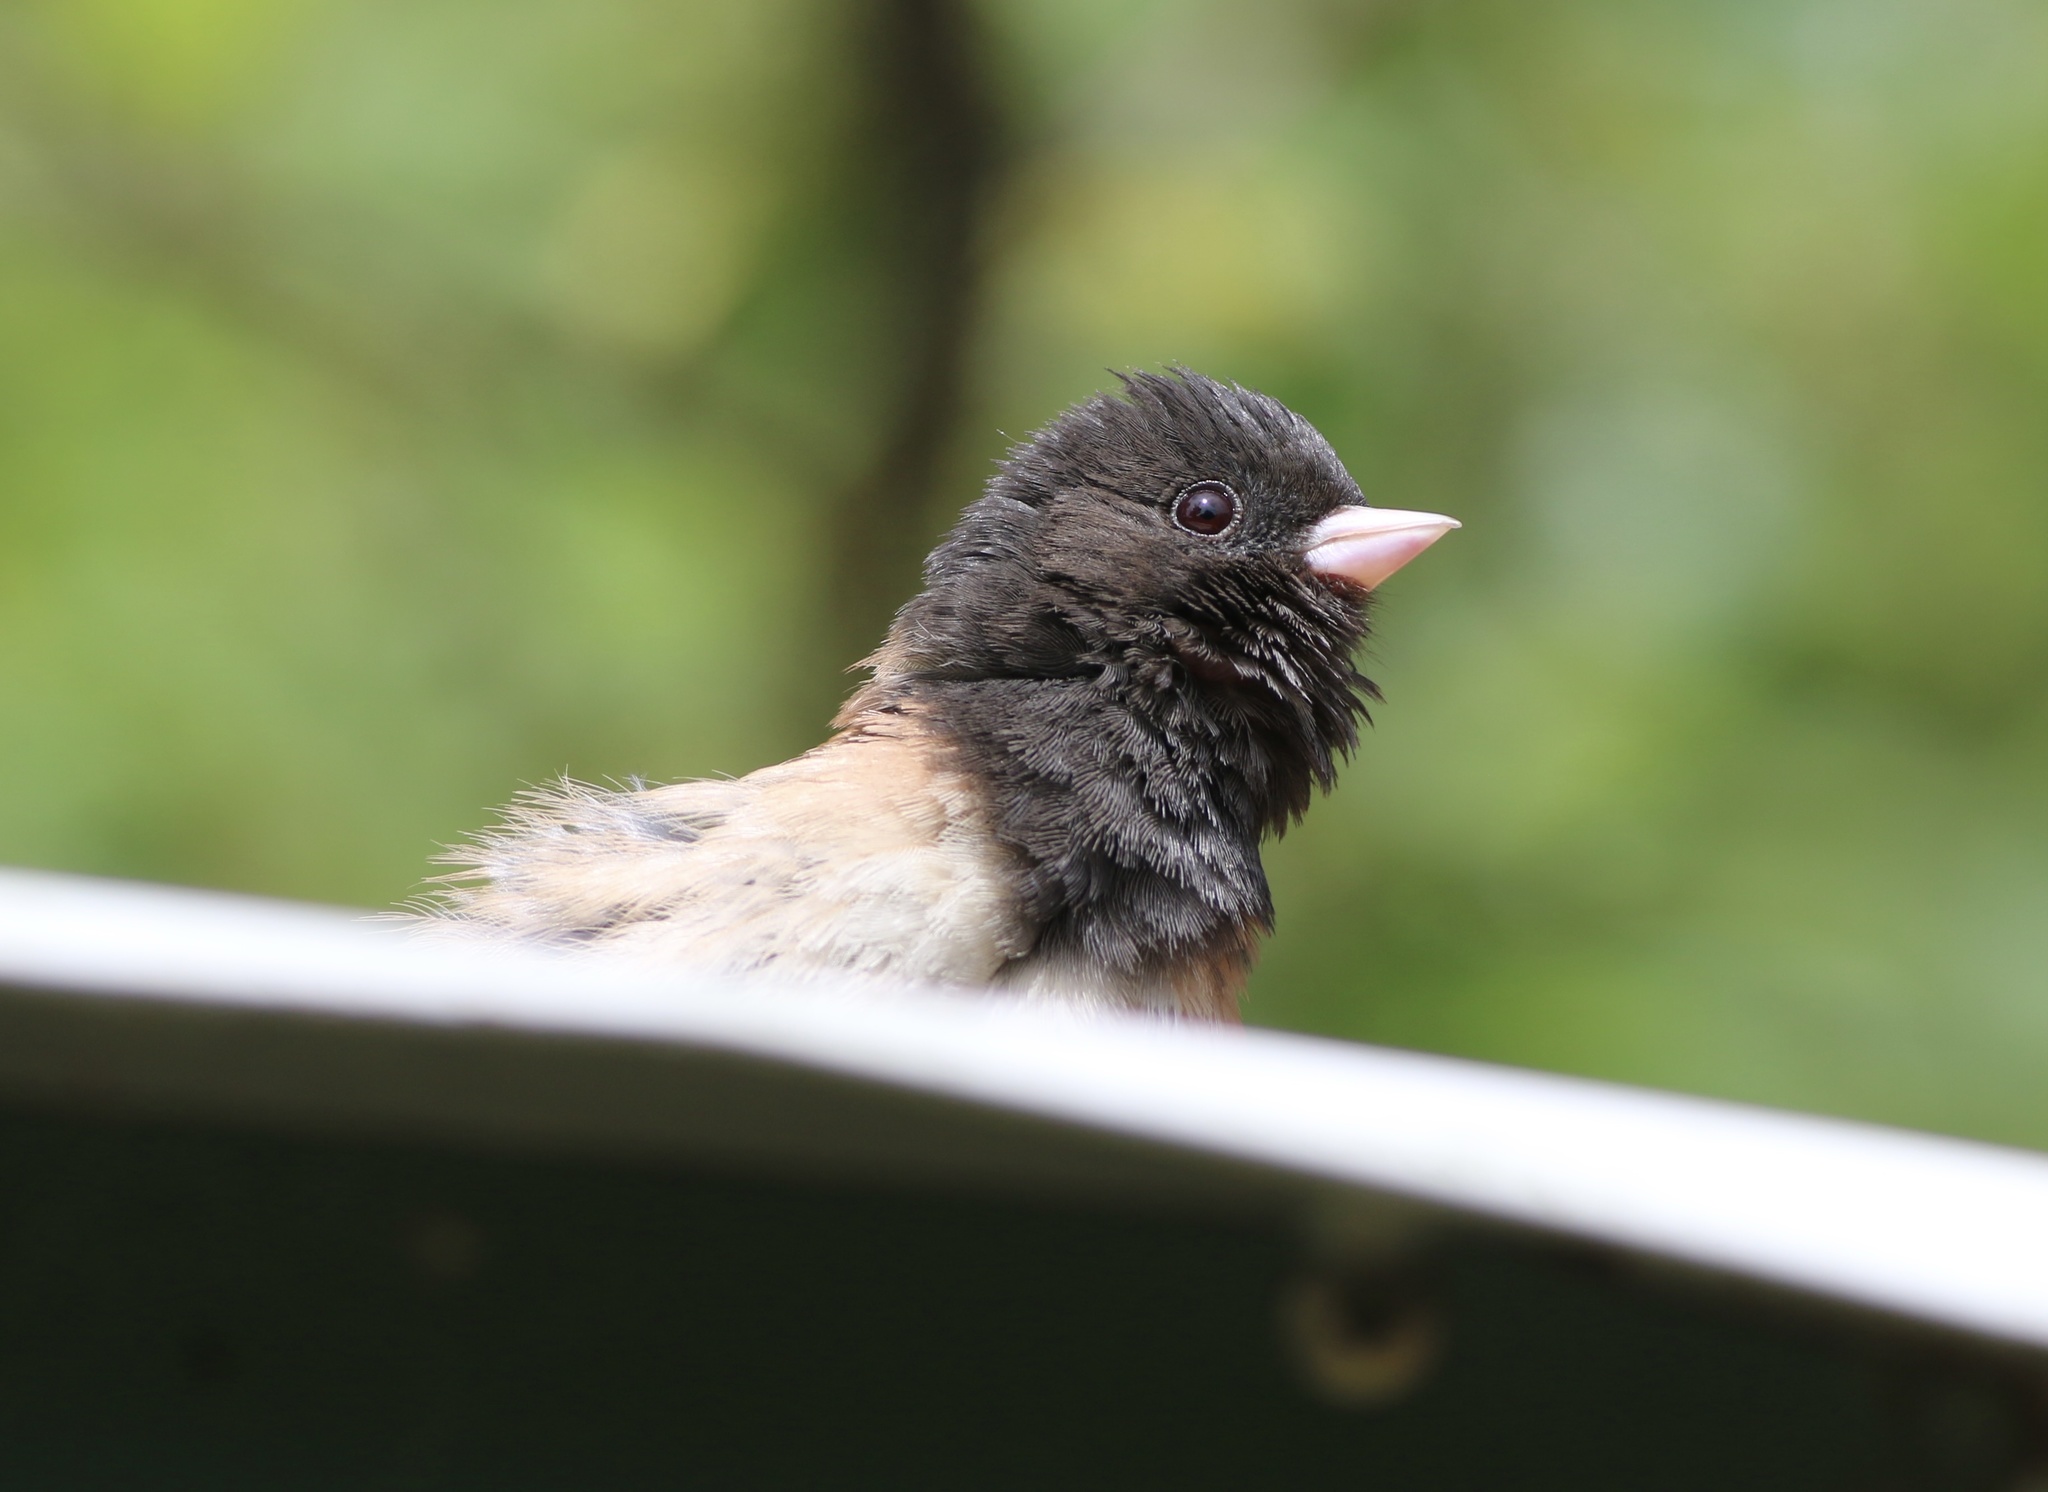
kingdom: Animalia
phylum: Chordata
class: Aves
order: Passeriformes
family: Passerellidae
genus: Junco
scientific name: Junco hyemalis
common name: Dark-eyed junco
